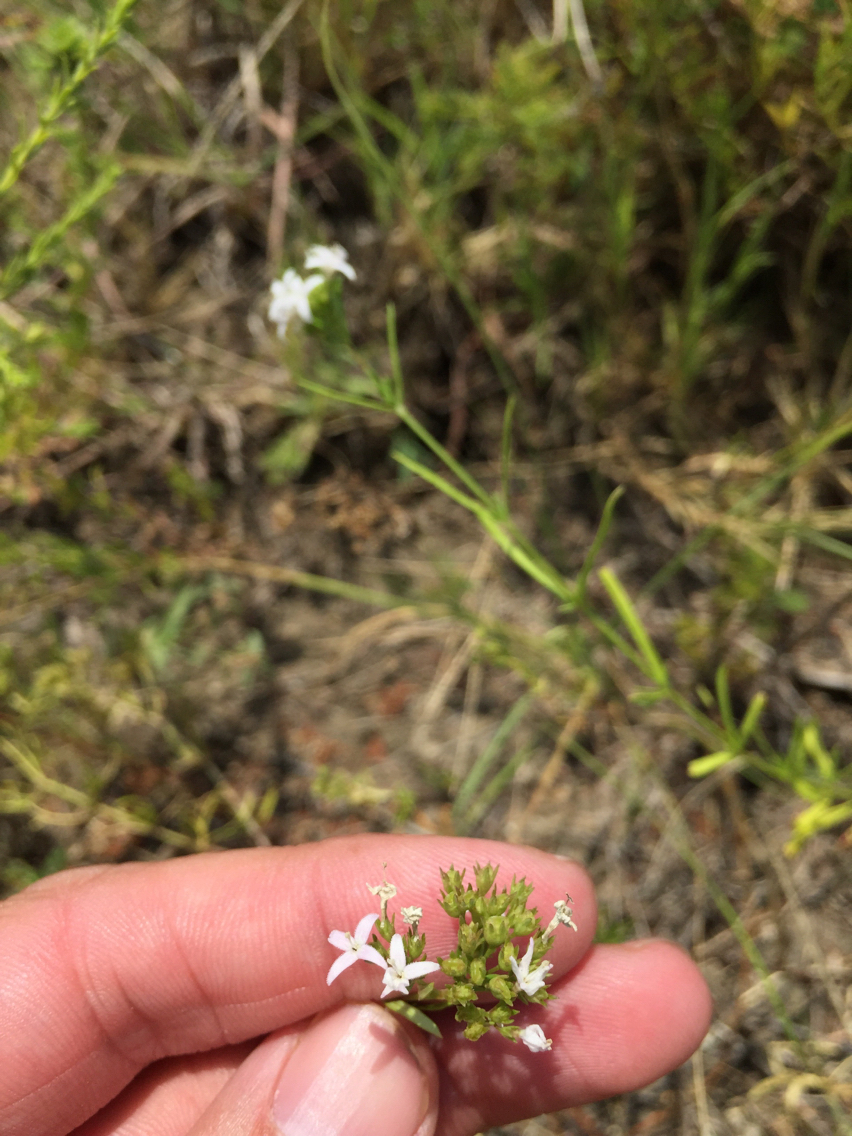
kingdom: Plantae
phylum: Tracheophyta
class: Magnoliopsida
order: Gentianales
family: Rubiaceae
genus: Stenaria
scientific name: Stenaria nigricans
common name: Diamondflowers
